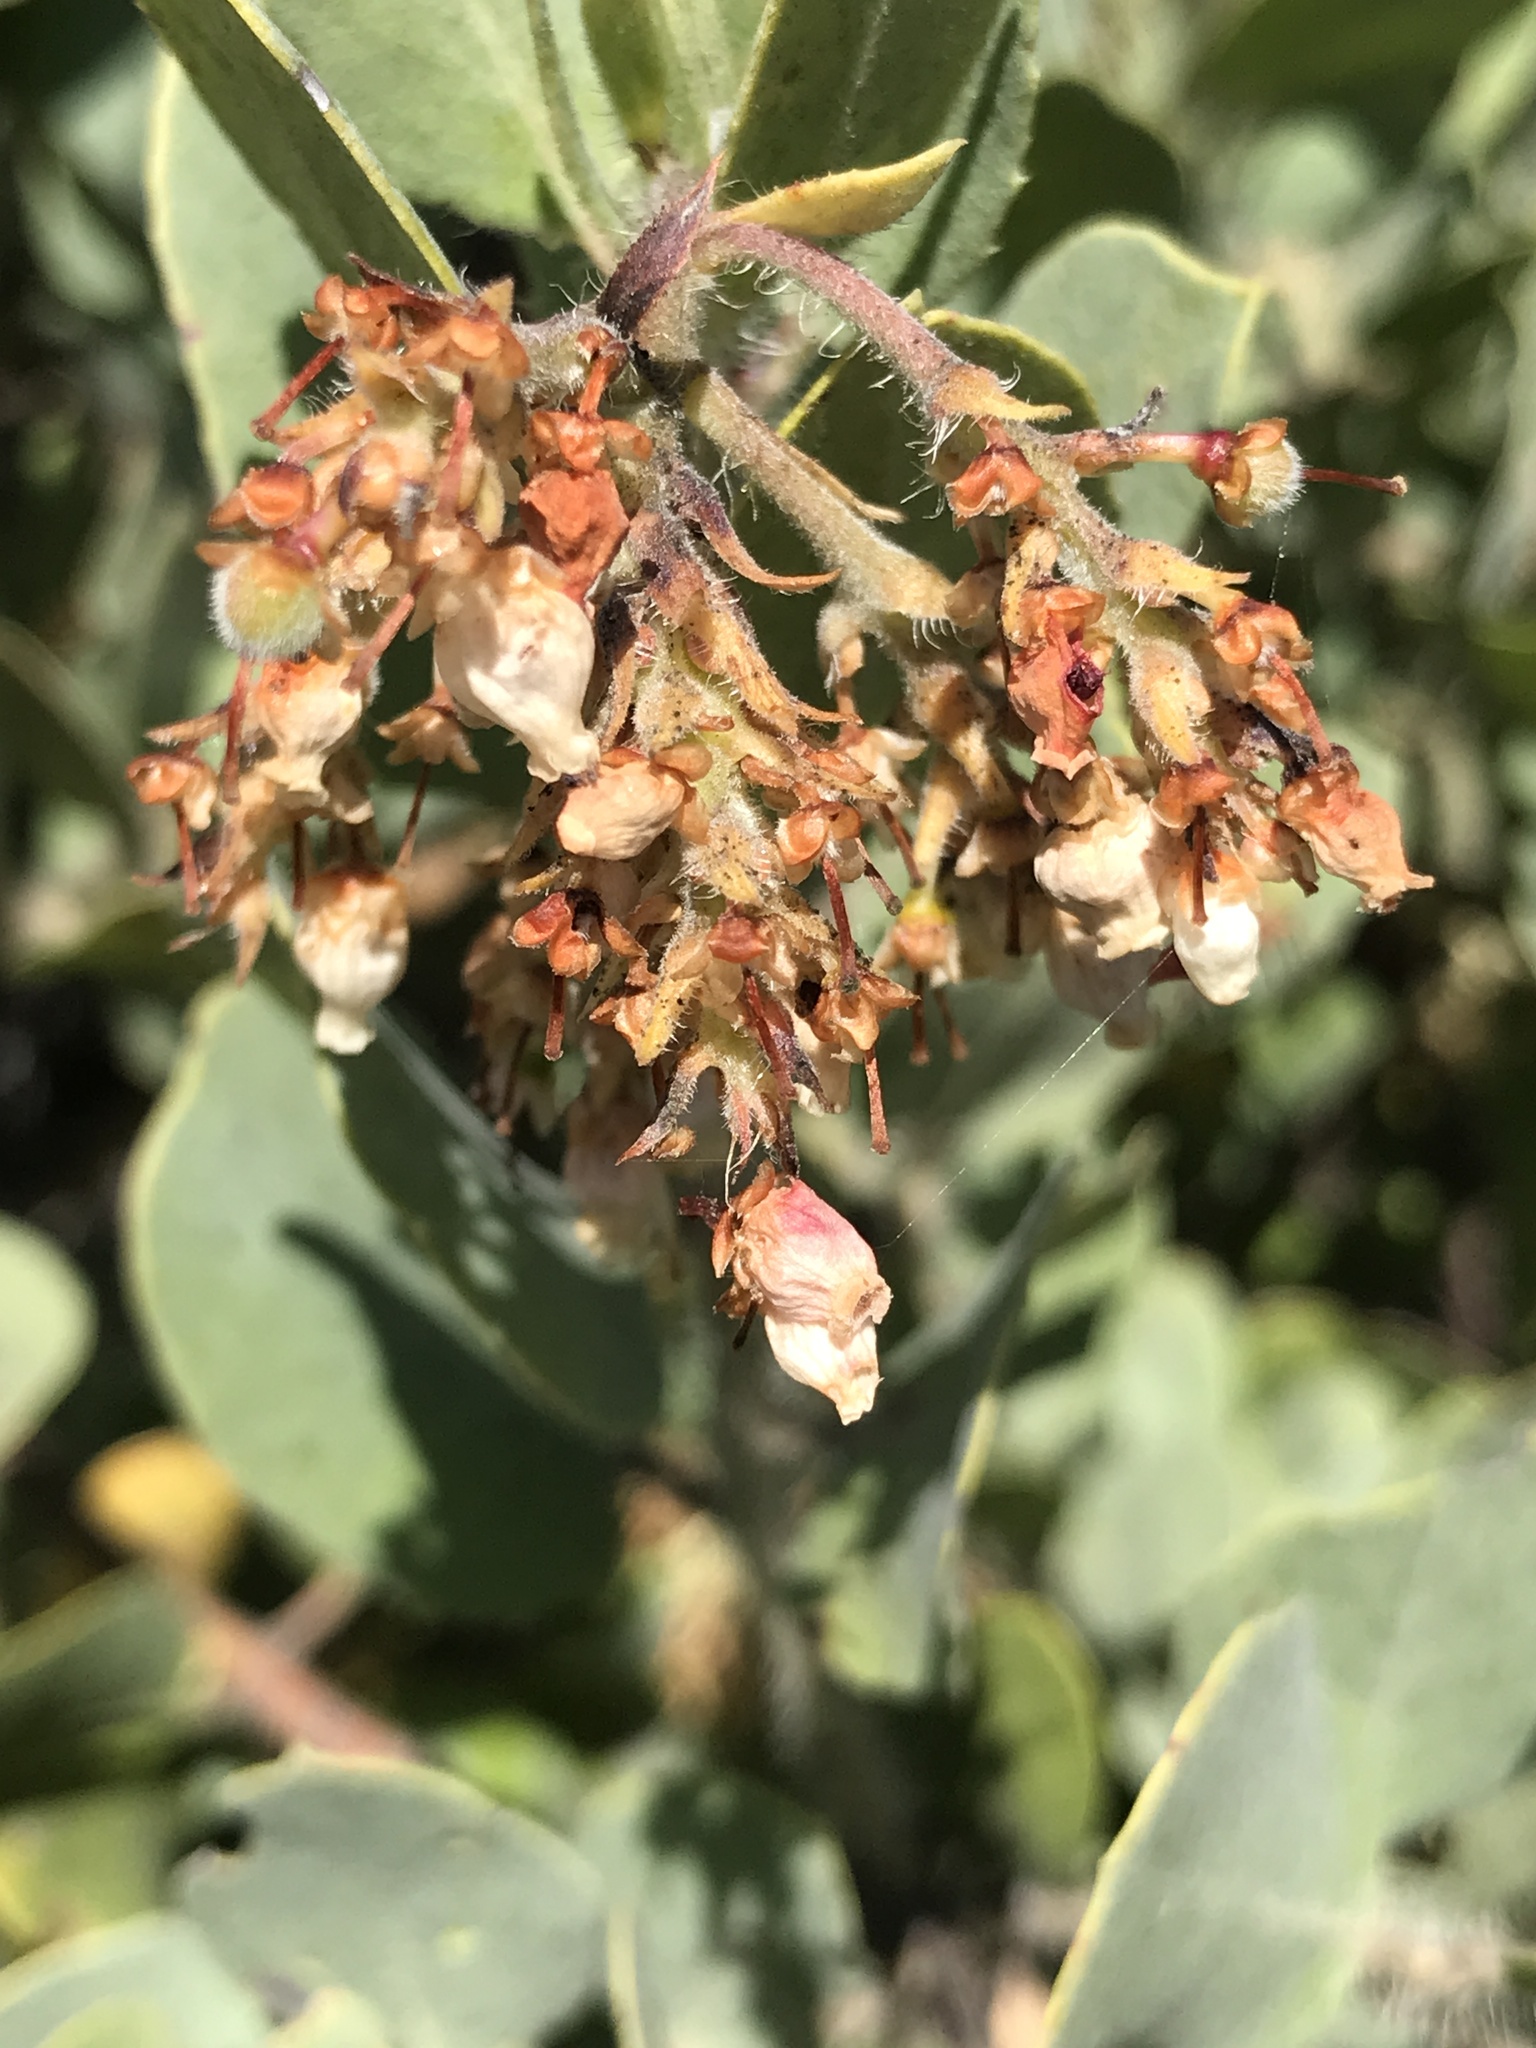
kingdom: Plantae
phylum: Tracheophyta
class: Magnoliopsida
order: Ericales
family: Ericaceae
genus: Arctostaphylos
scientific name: Arctostaphylos crustacea
